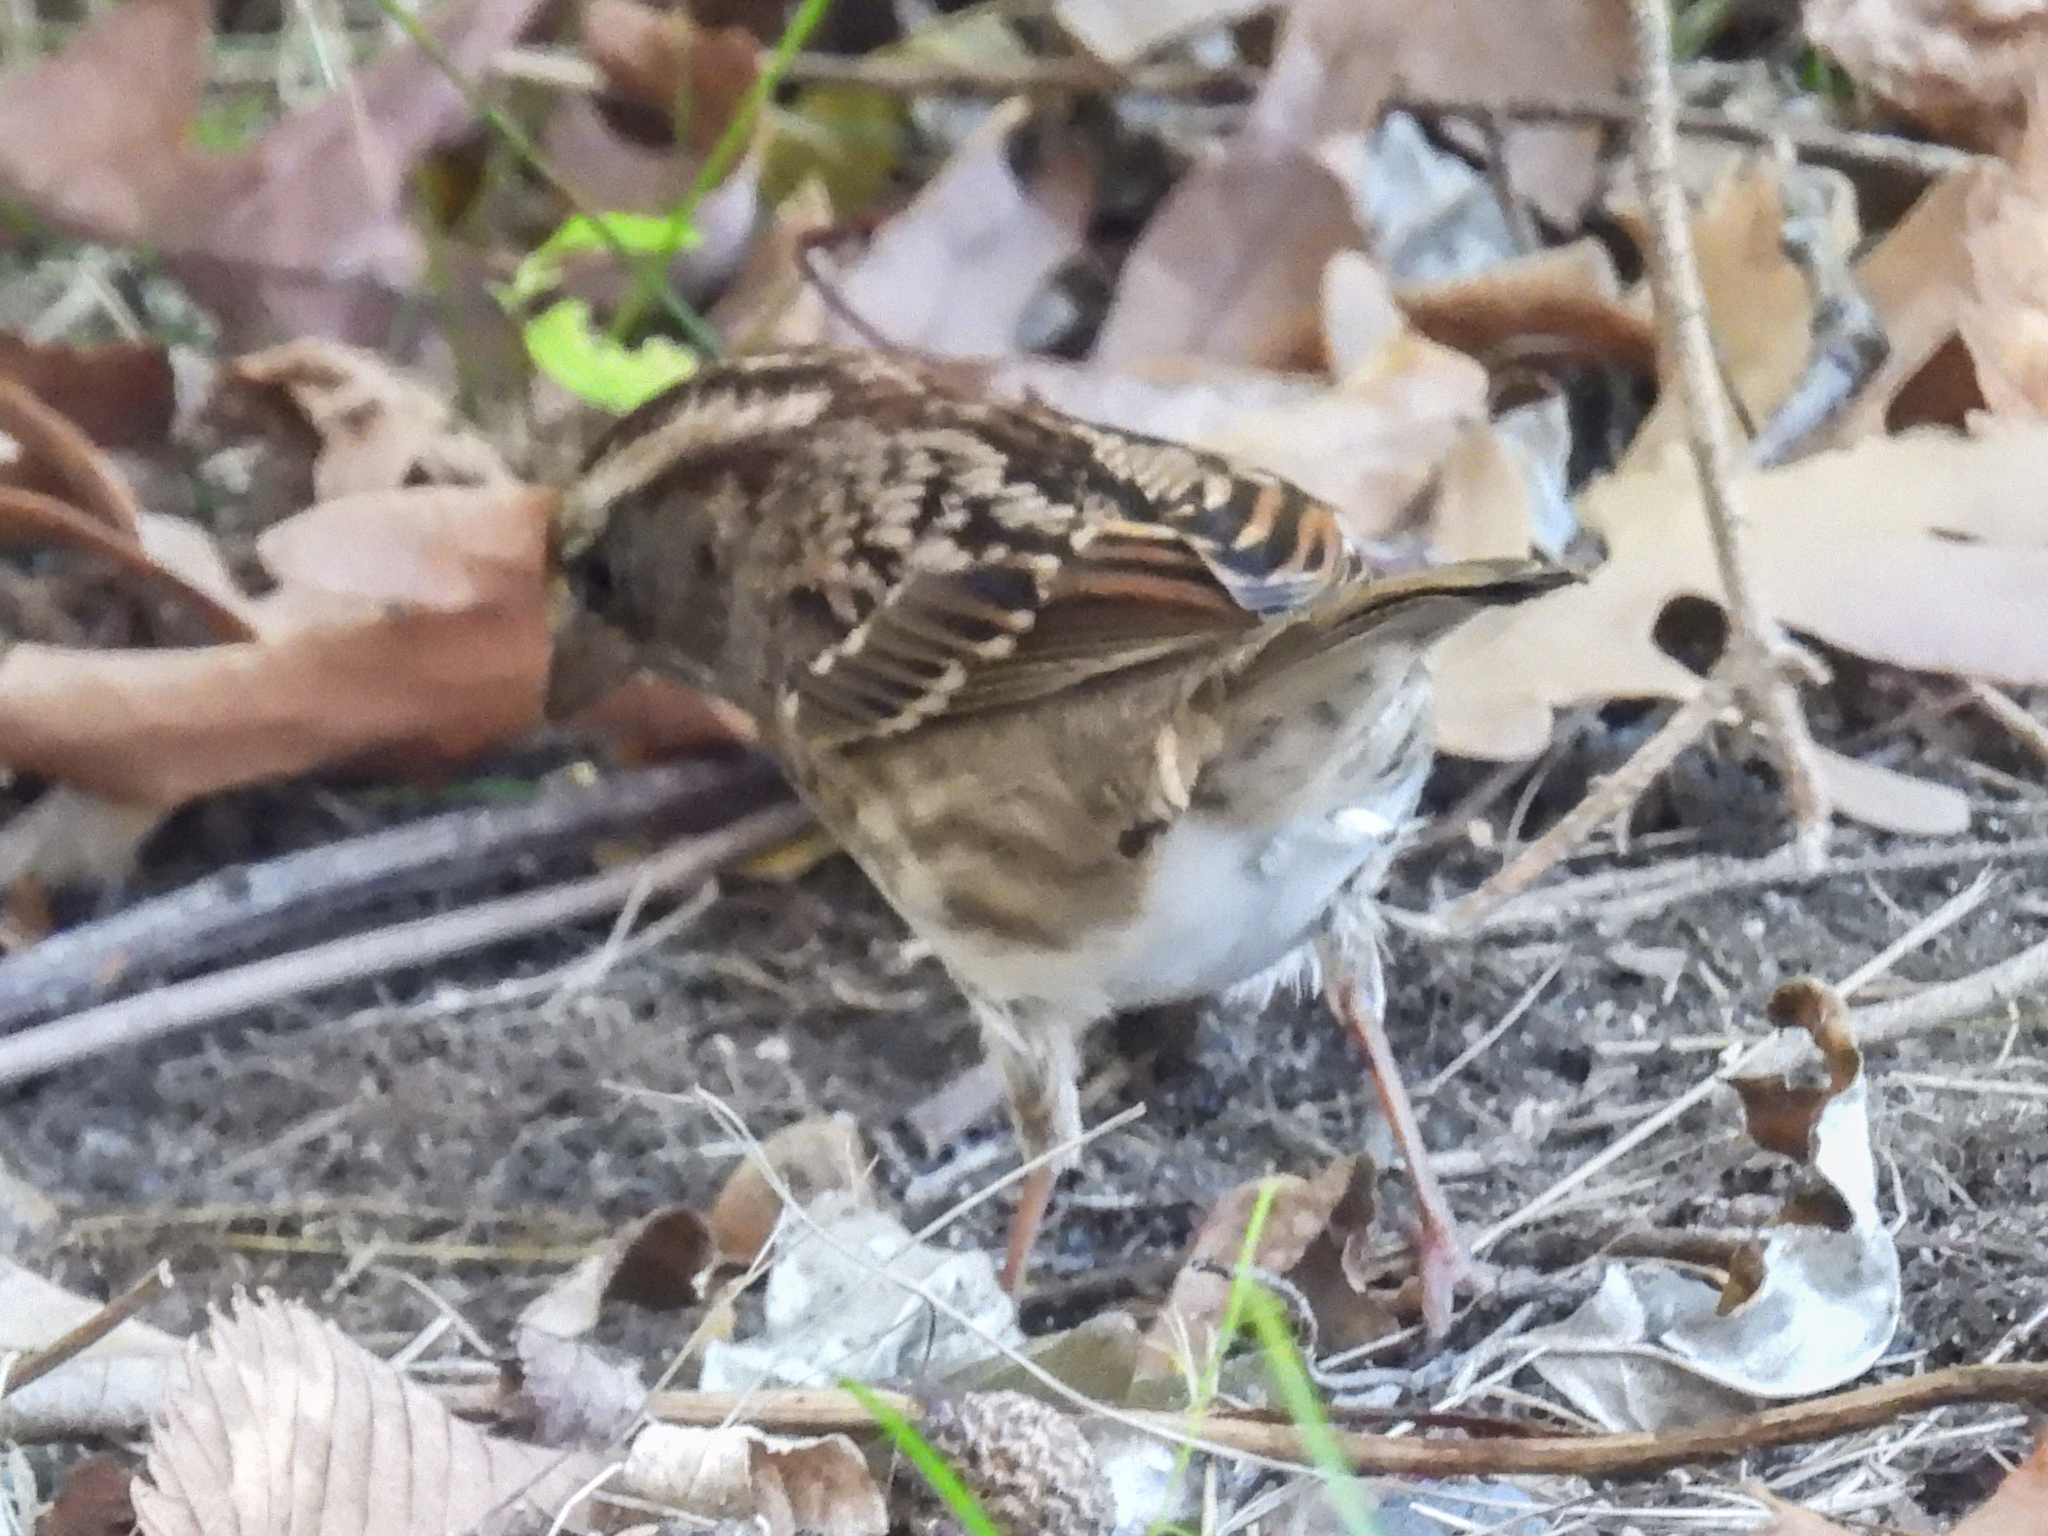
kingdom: Animalia
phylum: Chordata
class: Aves
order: Passeriformes
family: Passerellidae
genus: Zonotrichia
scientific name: Zonotrichia albicollis
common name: White-throated sparrow
